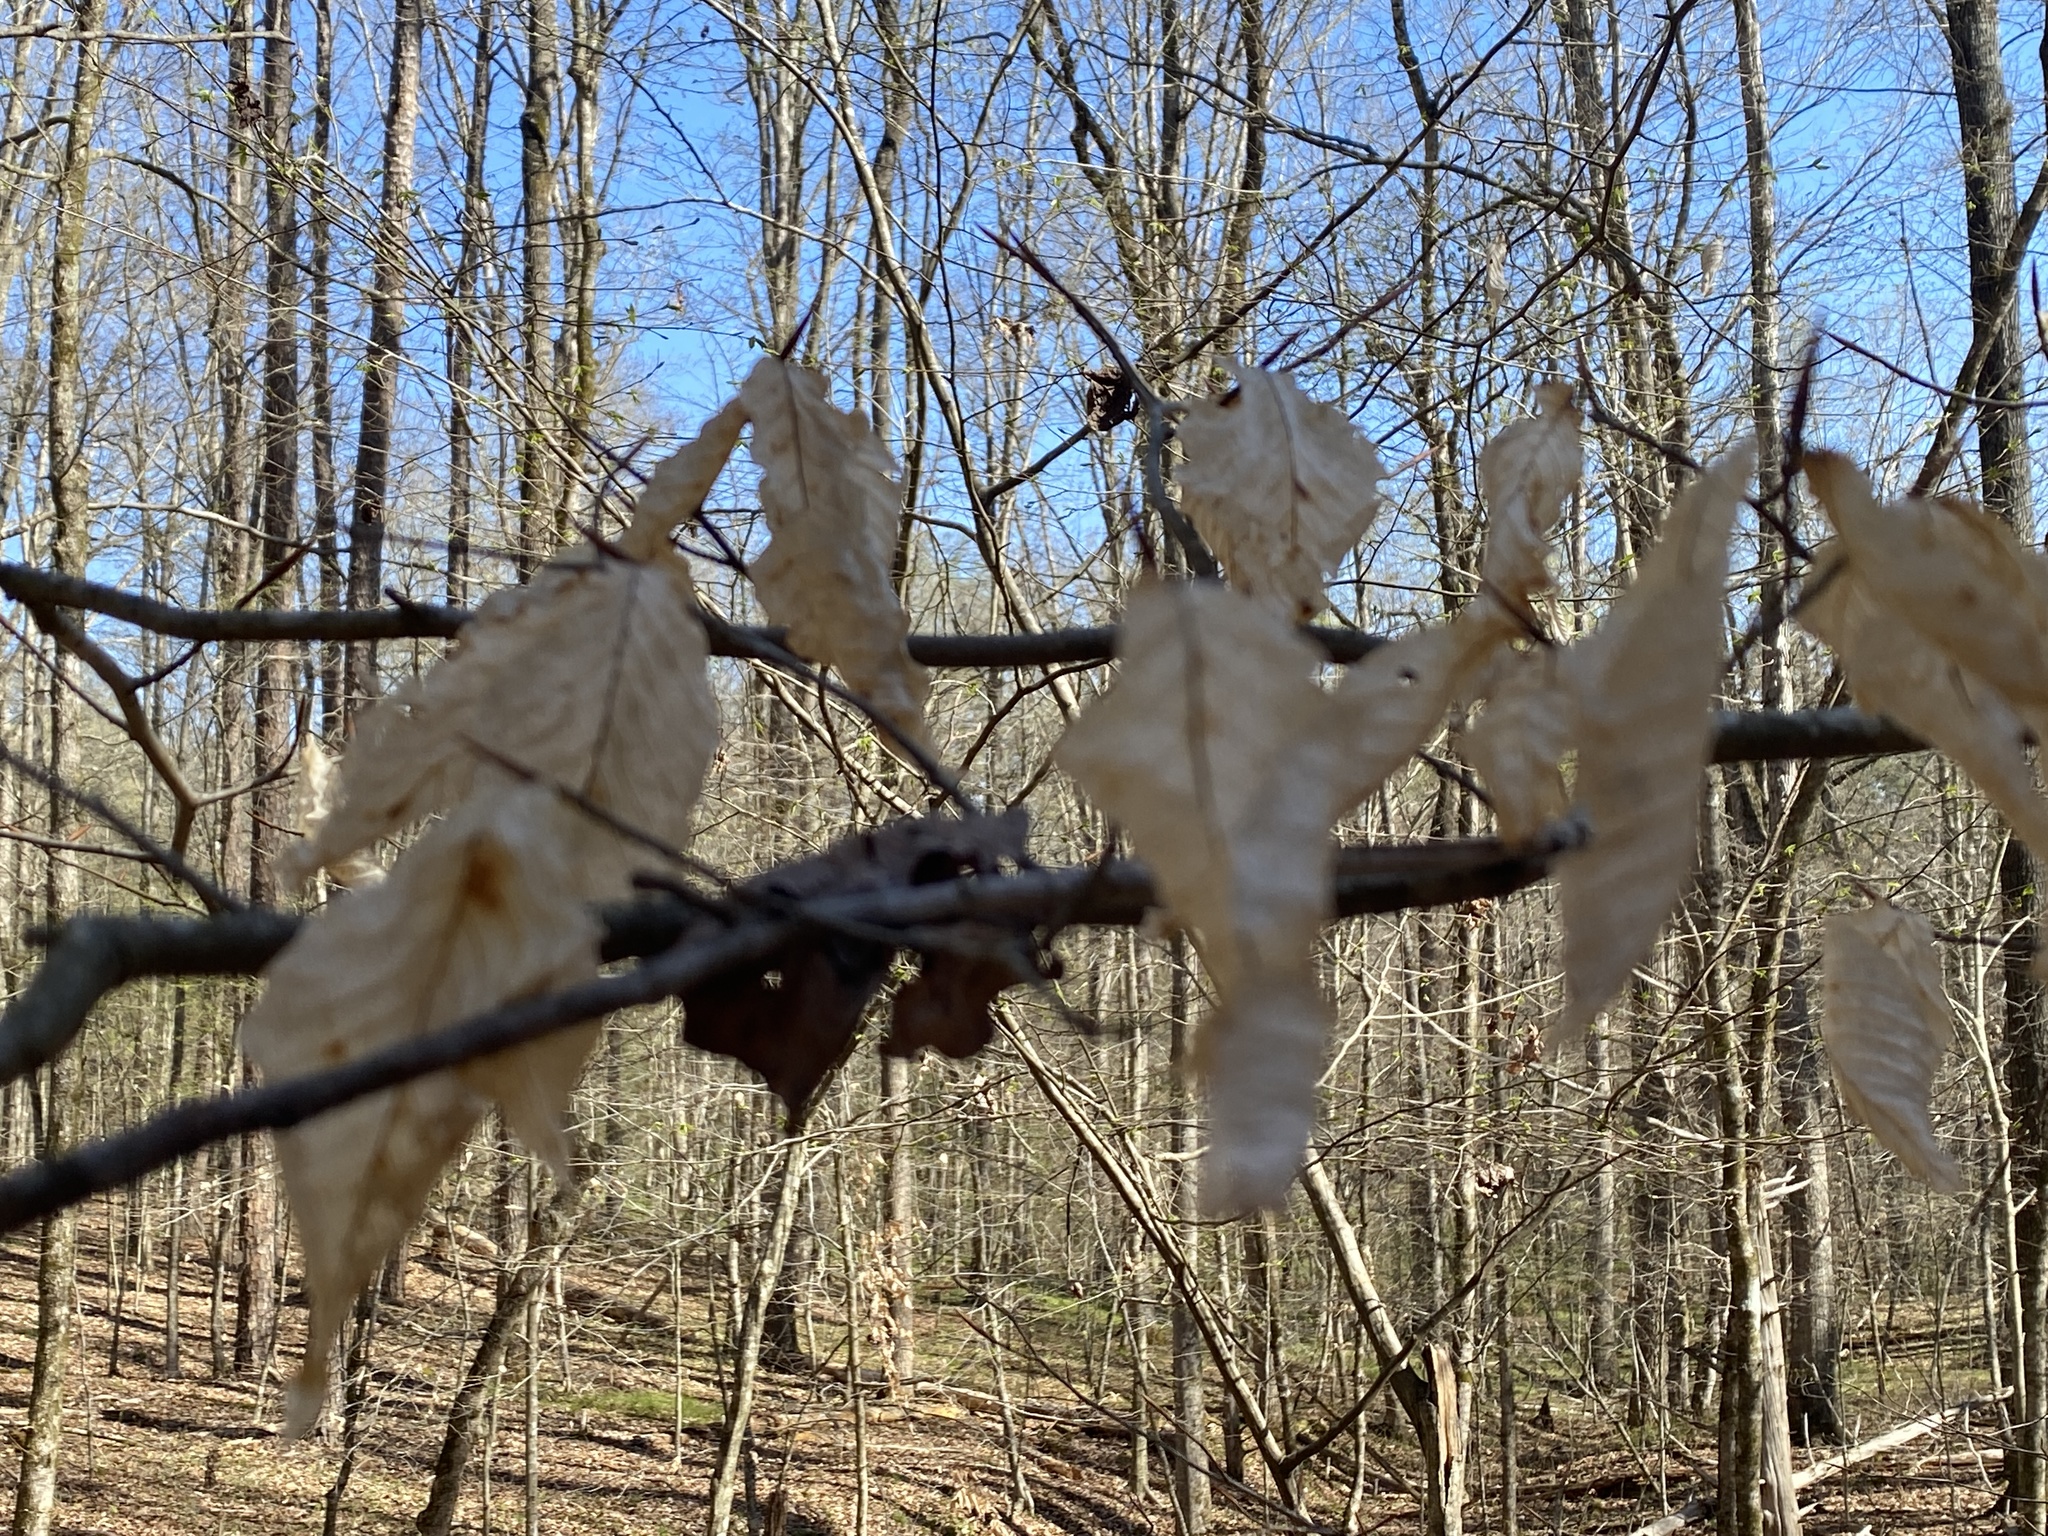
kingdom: Plantae
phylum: Tracheophyta
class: Magnoliopsida
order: Fagales
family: Fagaceae
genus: Fagus
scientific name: Fagus grandifolia
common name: American beech
